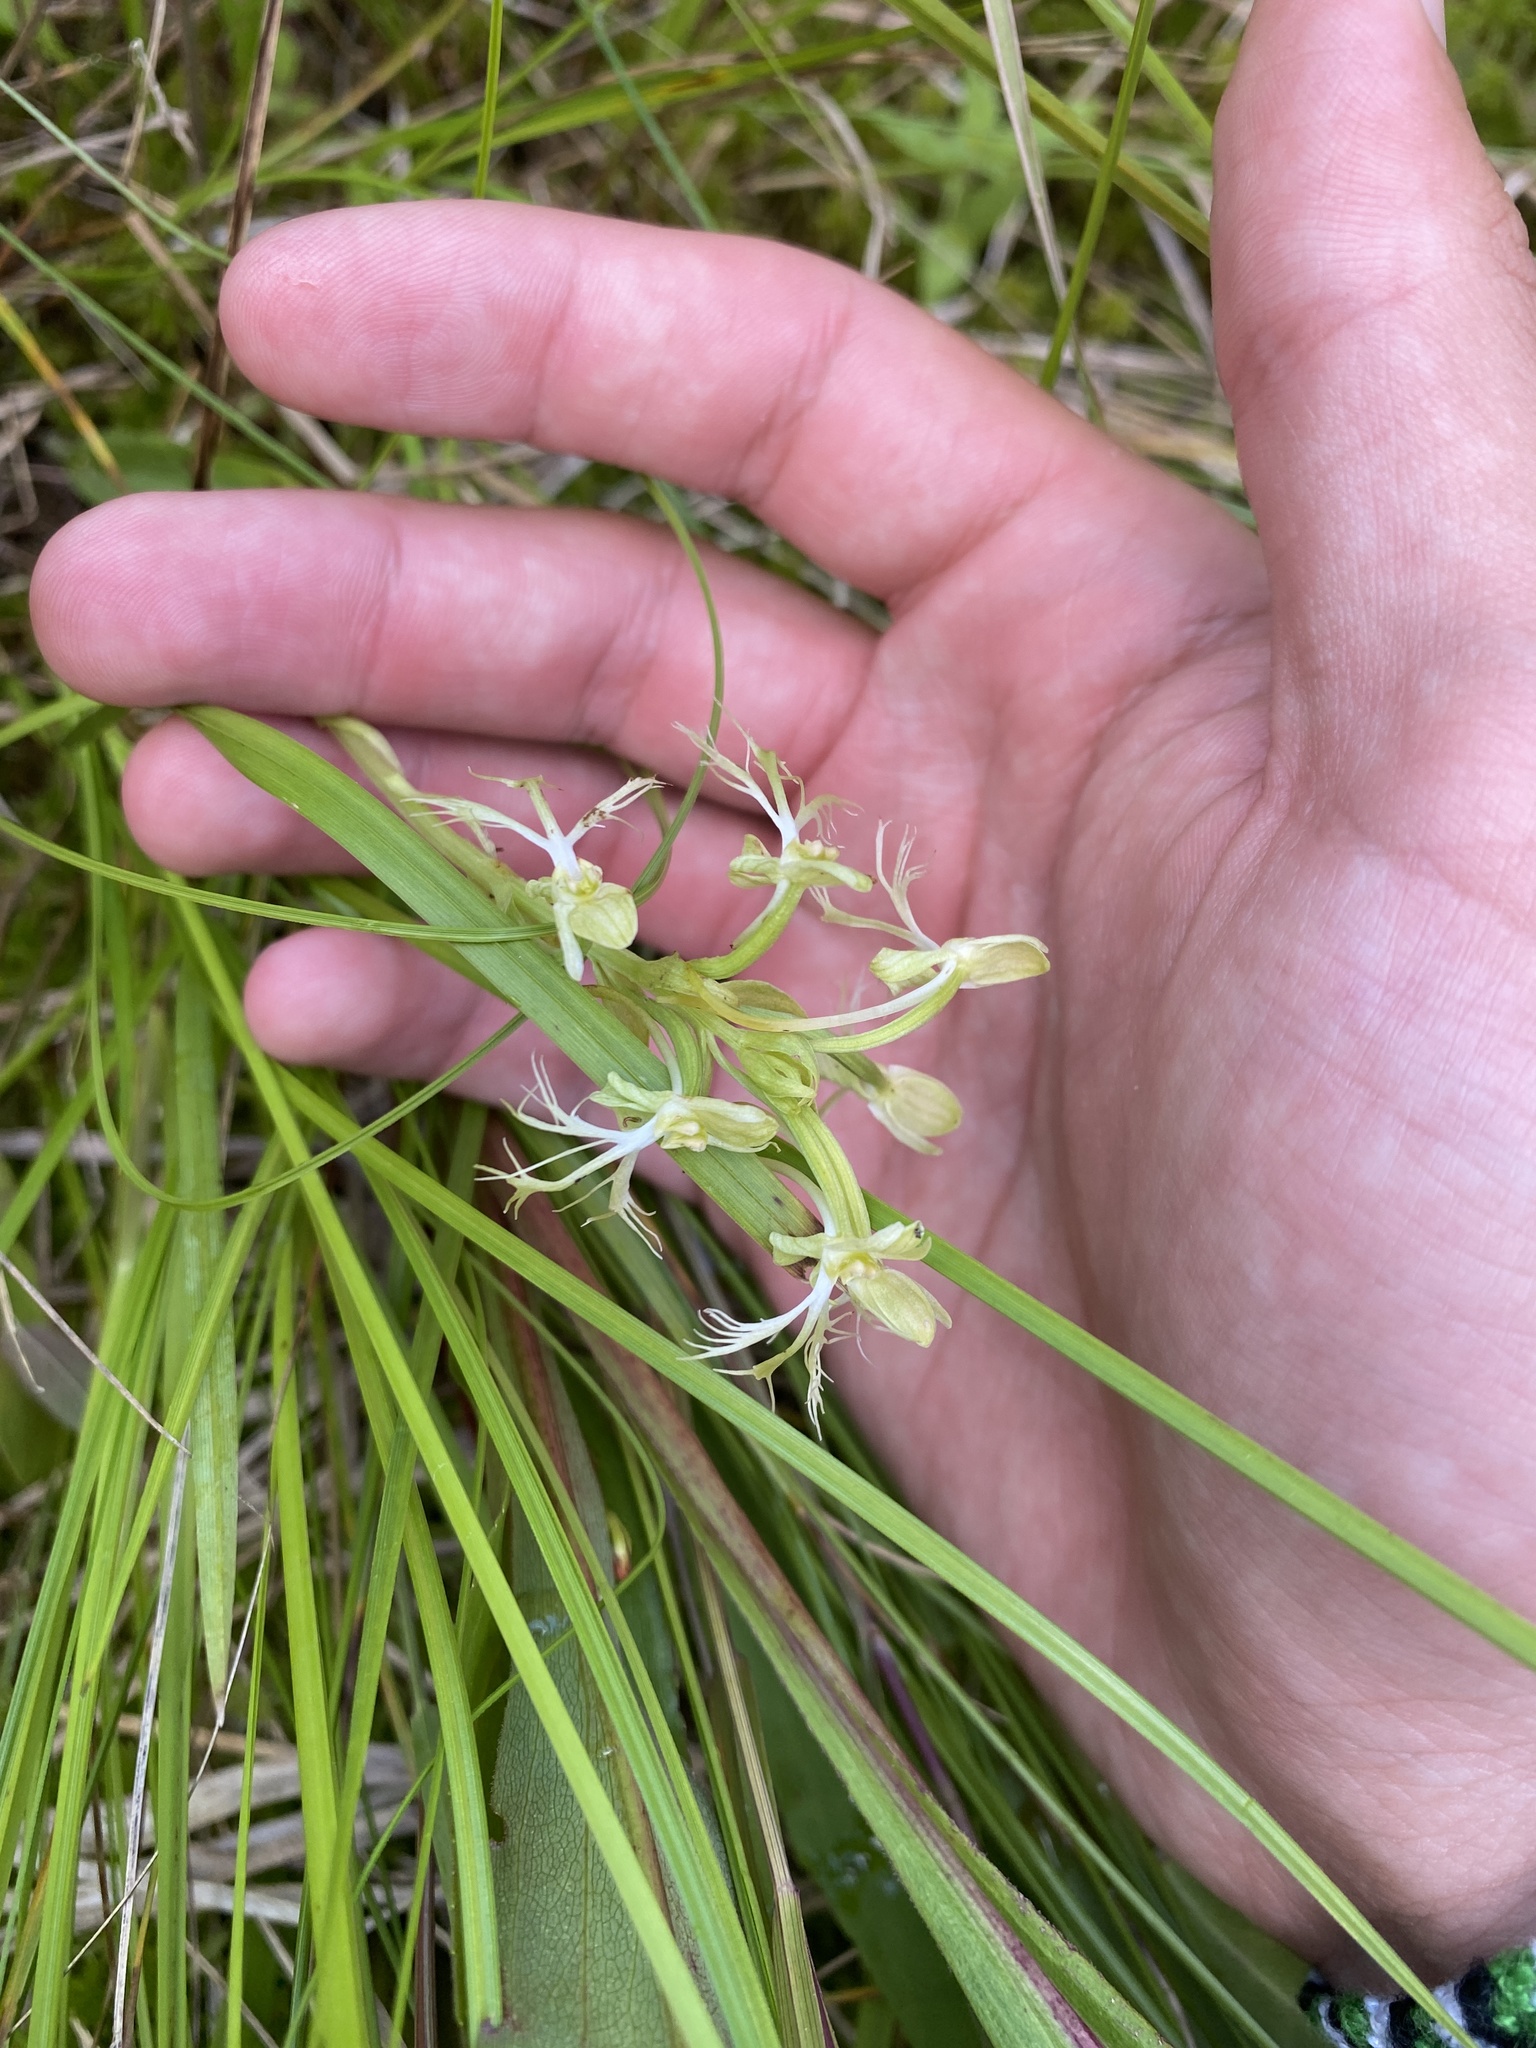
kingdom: Plantae
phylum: Tracheophyta
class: Liliopsida
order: Asparagales
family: Orchidaceae
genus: Platanthera
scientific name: Platanthera lacera
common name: Green fringed orchid
